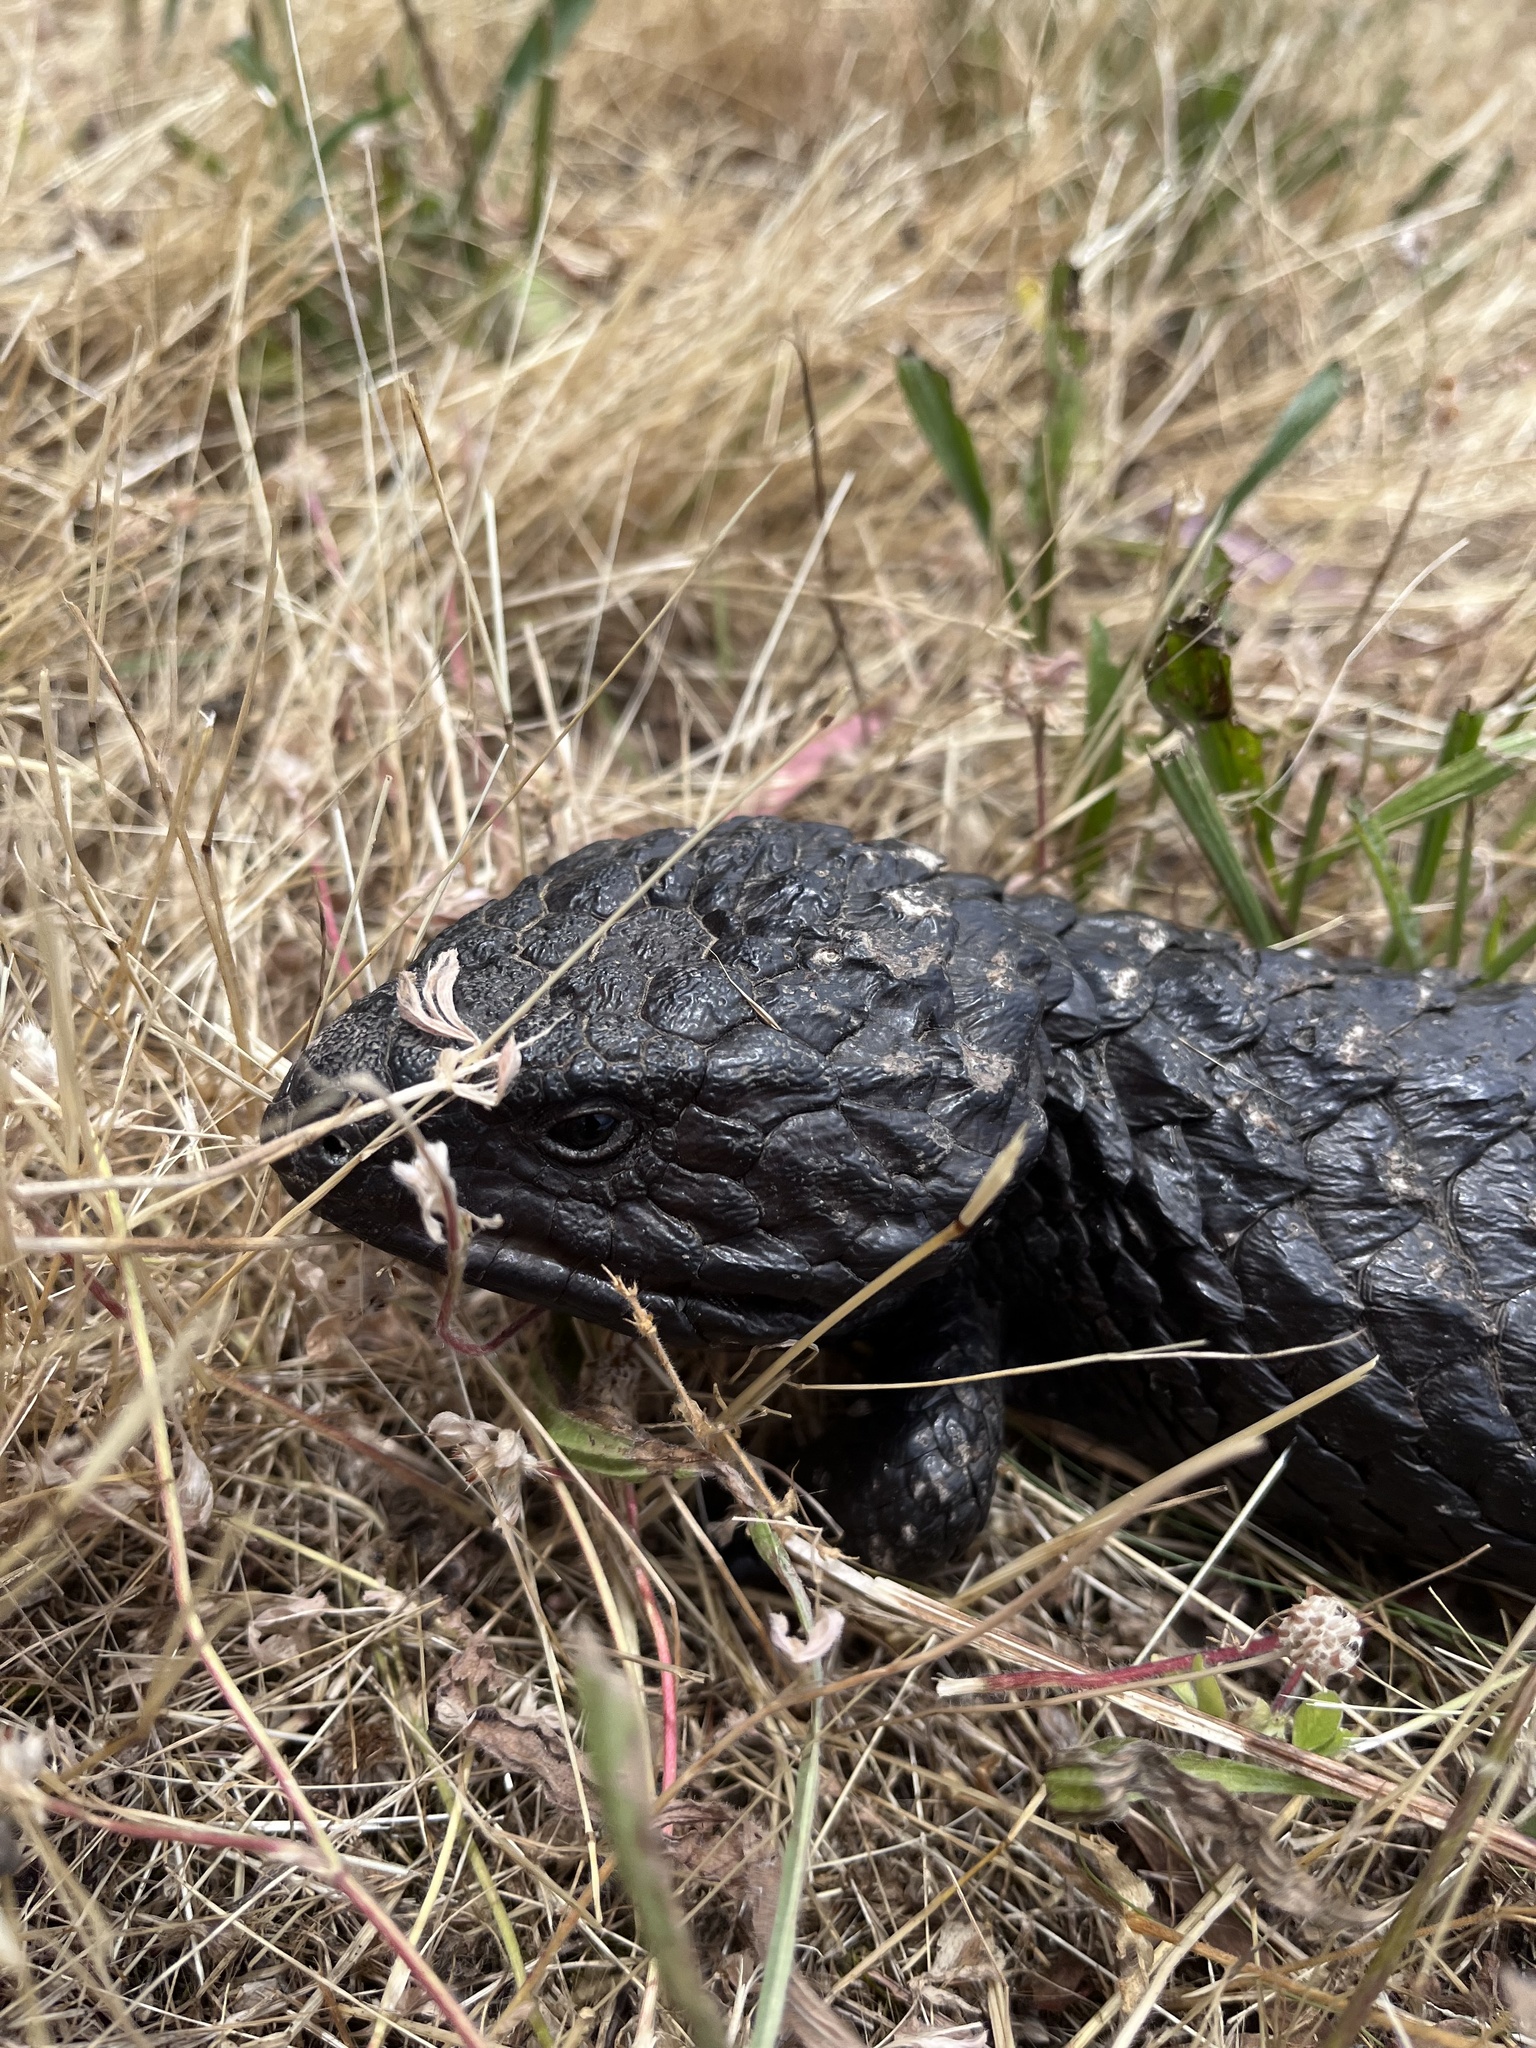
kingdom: Animalia
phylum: Chordata
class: Squamata
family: Scincidae
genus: Tiliqua
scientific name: Tiliqua rugosa
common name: Pinecone lizard
